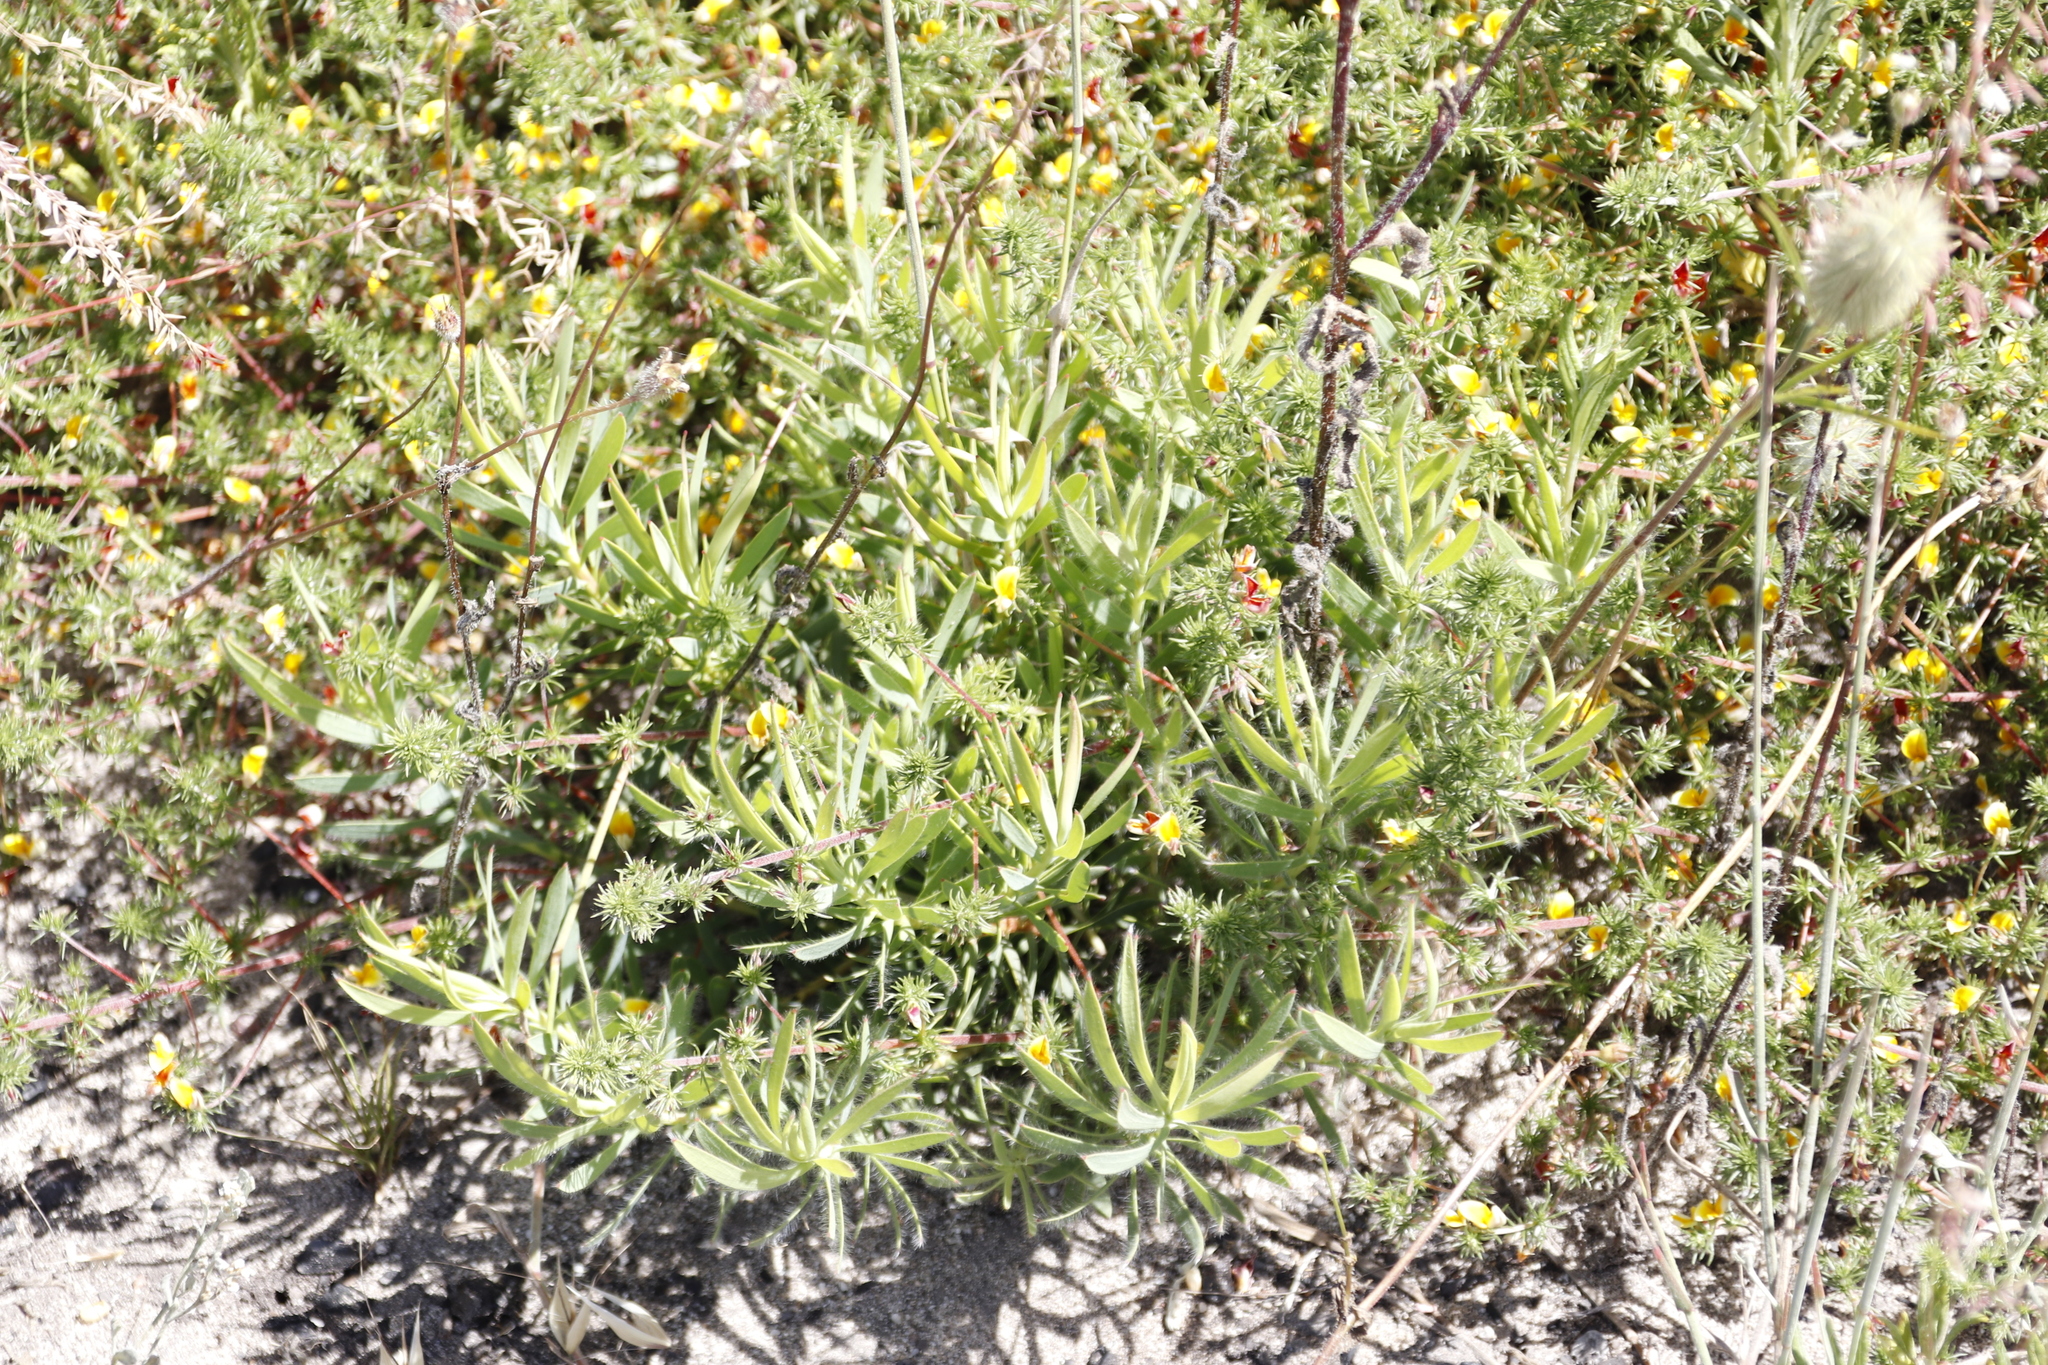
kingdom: Plantae
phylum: Tracheophyta
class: Magnoliopsida
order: Proteales
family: Proteaceae
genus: Leucadendron
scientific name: Leucadendron salignum
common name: Common sunshine conebush
